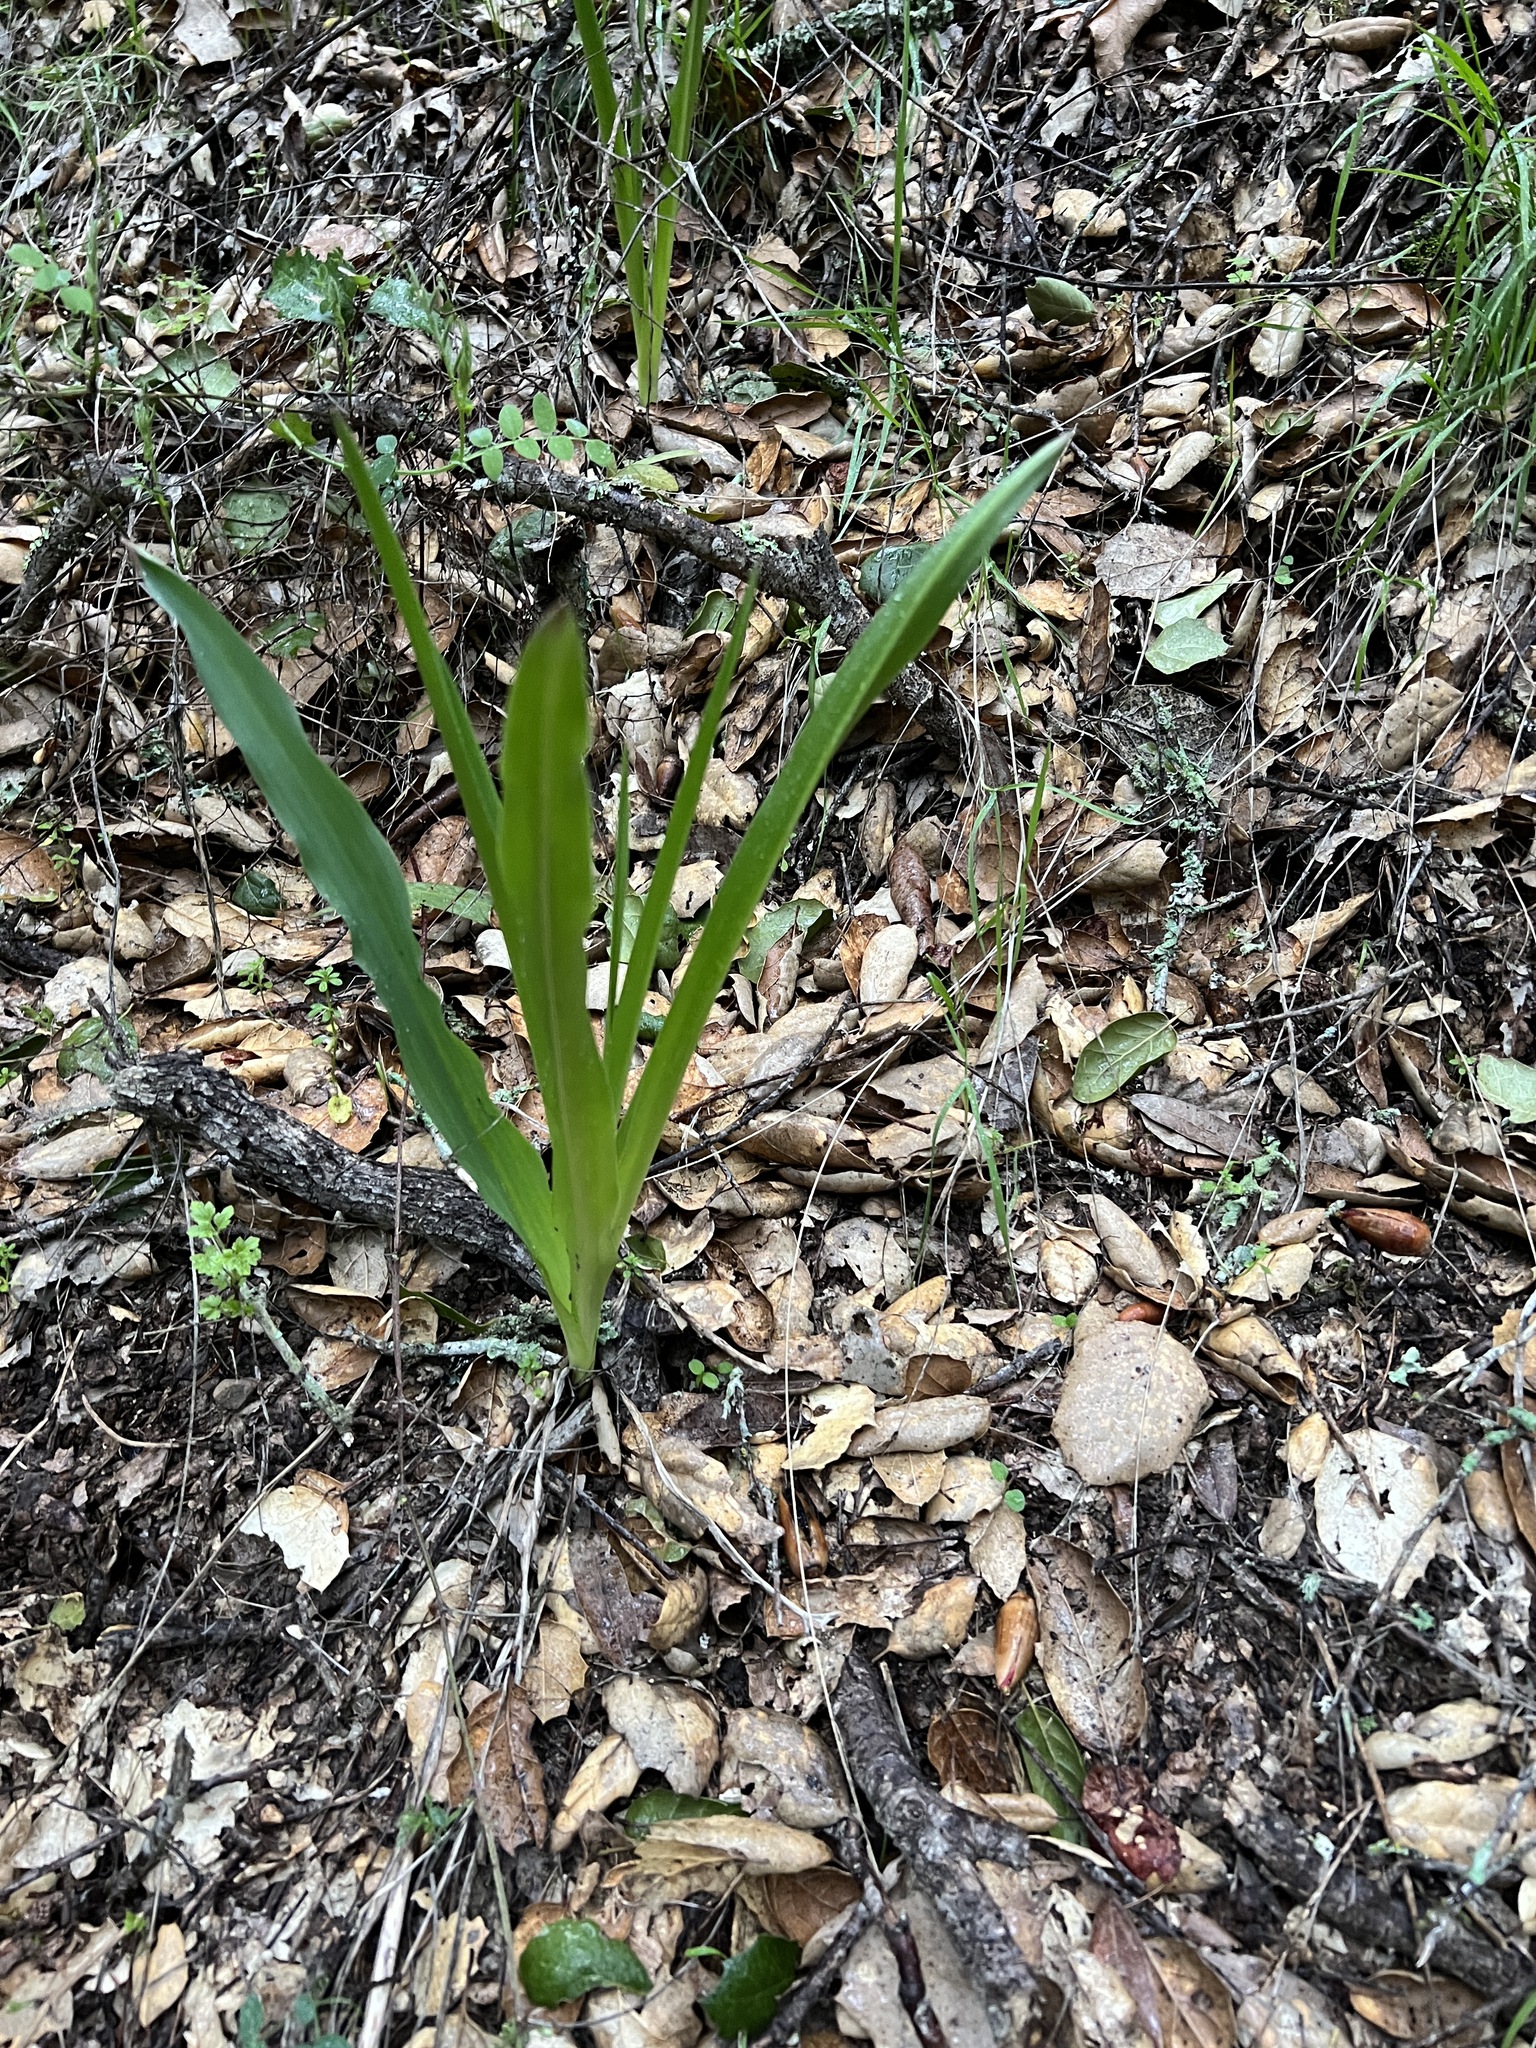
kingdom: Plantae
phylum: Tracheophyta
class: Liliopsida
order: Asparagales
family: Asparagaceae
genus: Chlorogalum
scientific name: Chlorogalum pomeridianum
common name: Amole
